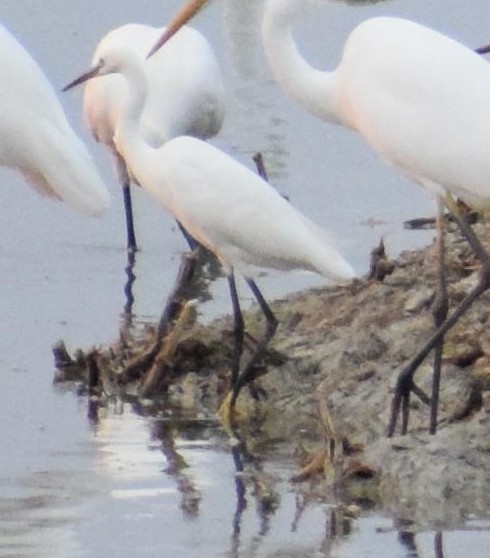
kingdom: Animalia
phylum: Chordata
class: Aves
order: Pelecaniformes
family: Ardeidae
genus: Egretta
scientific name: Egretta garzetta
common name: Little egret
